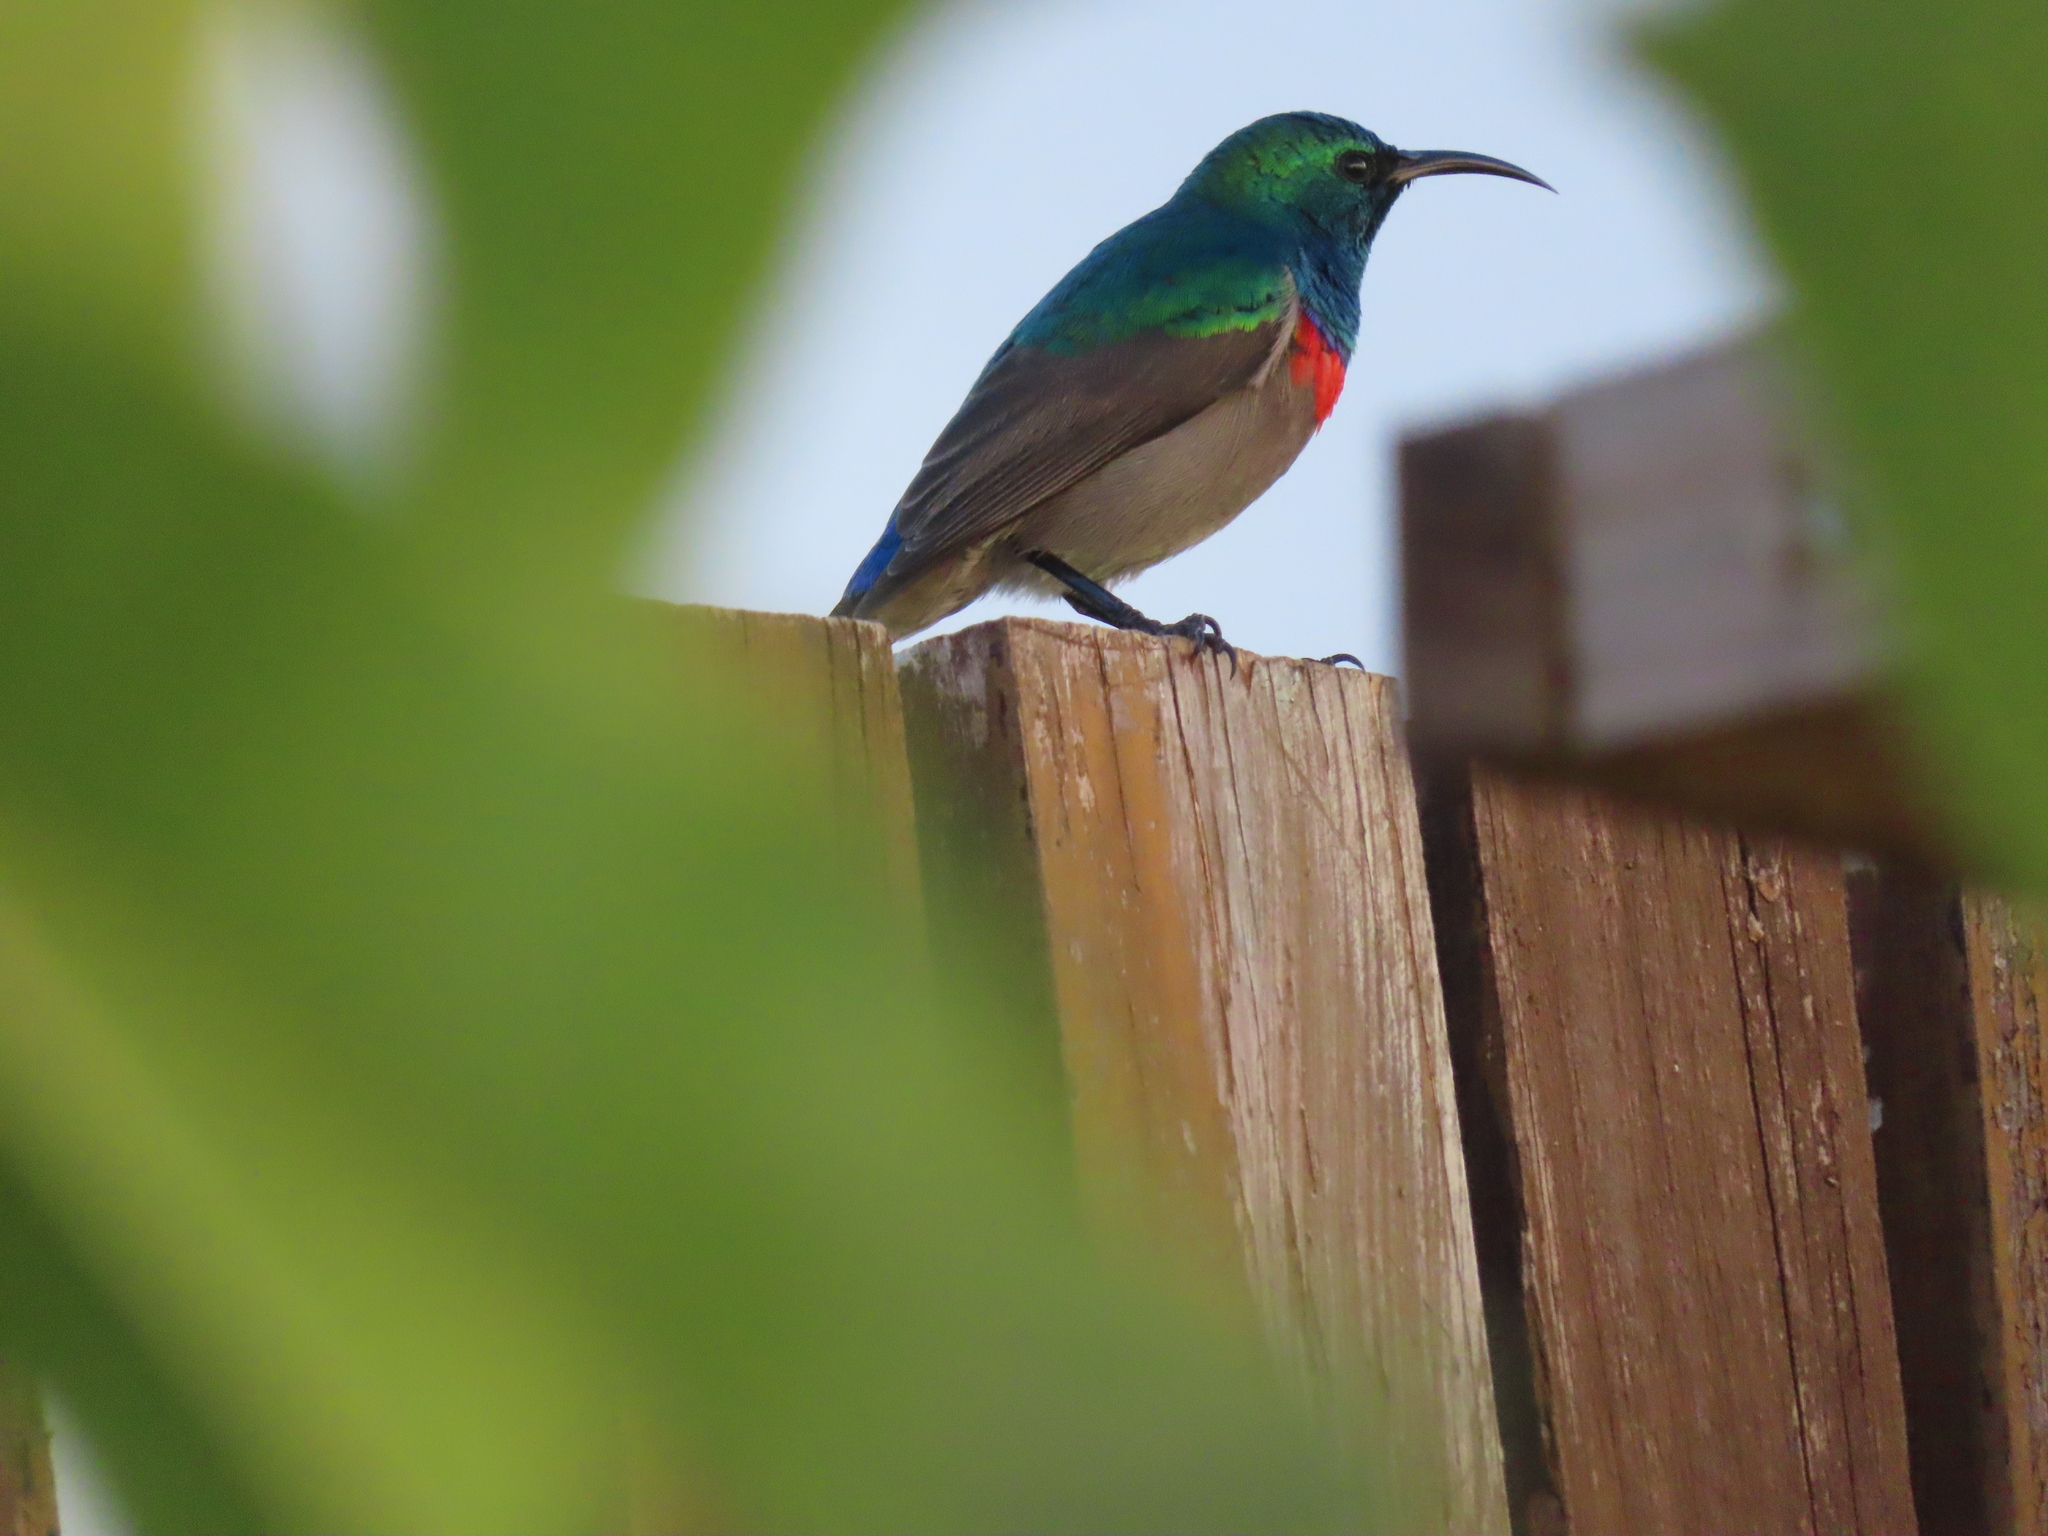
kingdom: Animalia
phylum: Chordata
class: Aves
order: Passeriformes
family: Nectariniidae
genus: Cinnyris
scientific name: Cinnyris chalybeus
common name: Southern double-collared sunbird
